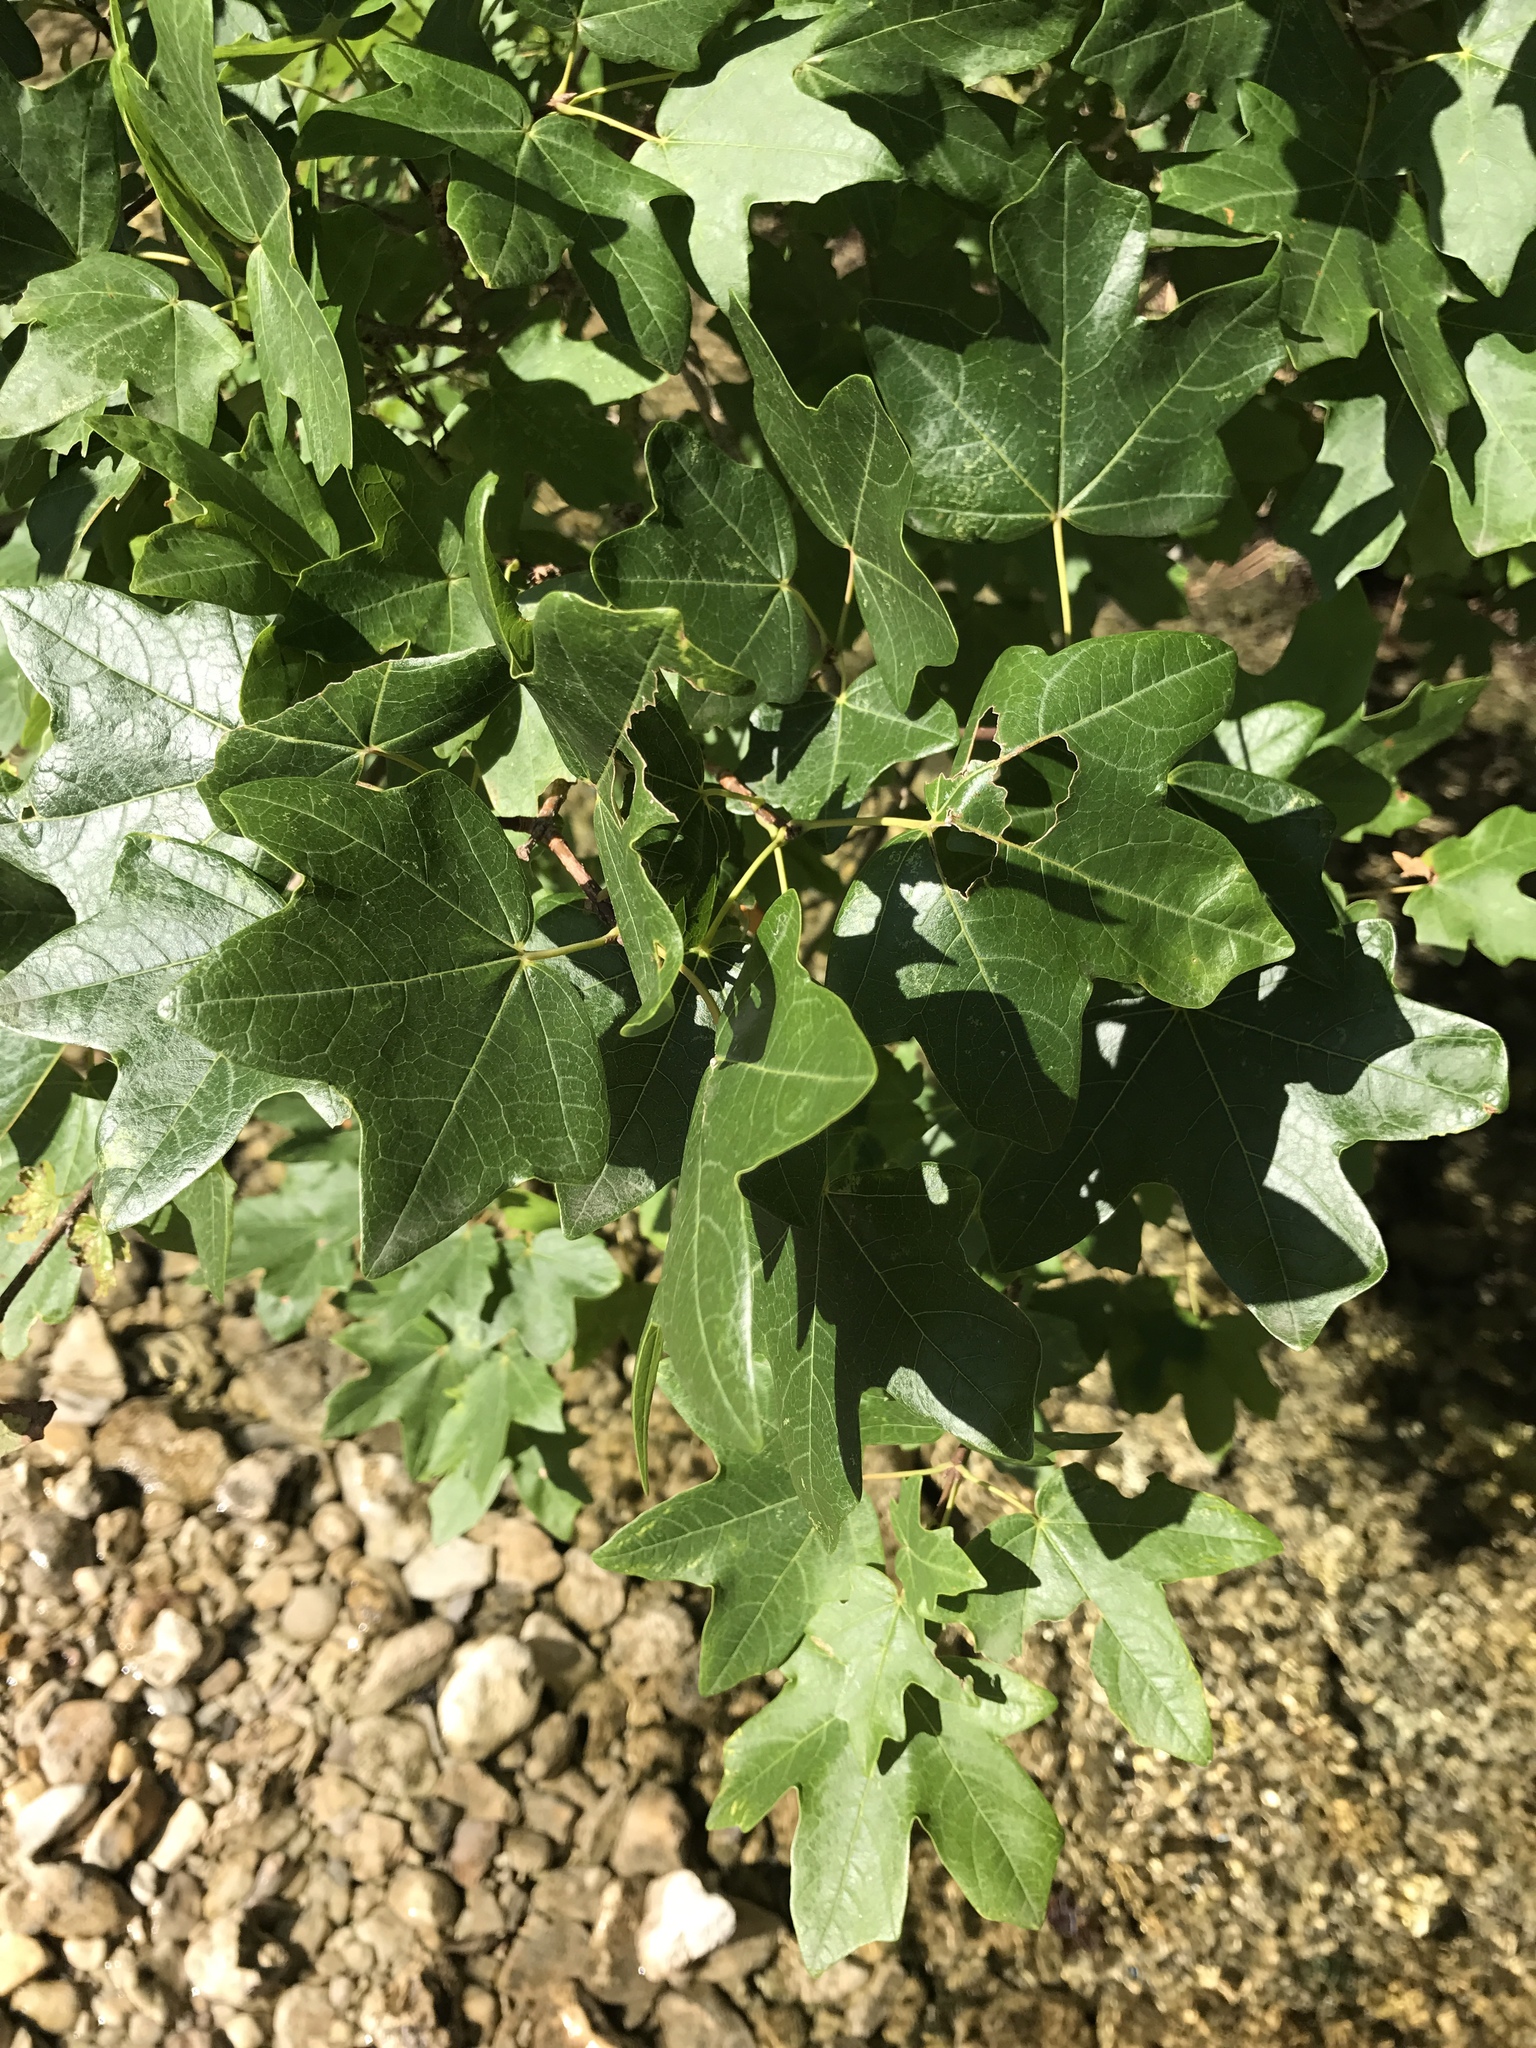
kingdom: Plantae
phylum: Tracheophyta
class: Magnoliopsida
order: Sapindales
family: Sapindaceae
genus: Acer
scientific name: Acer grandidentatum
